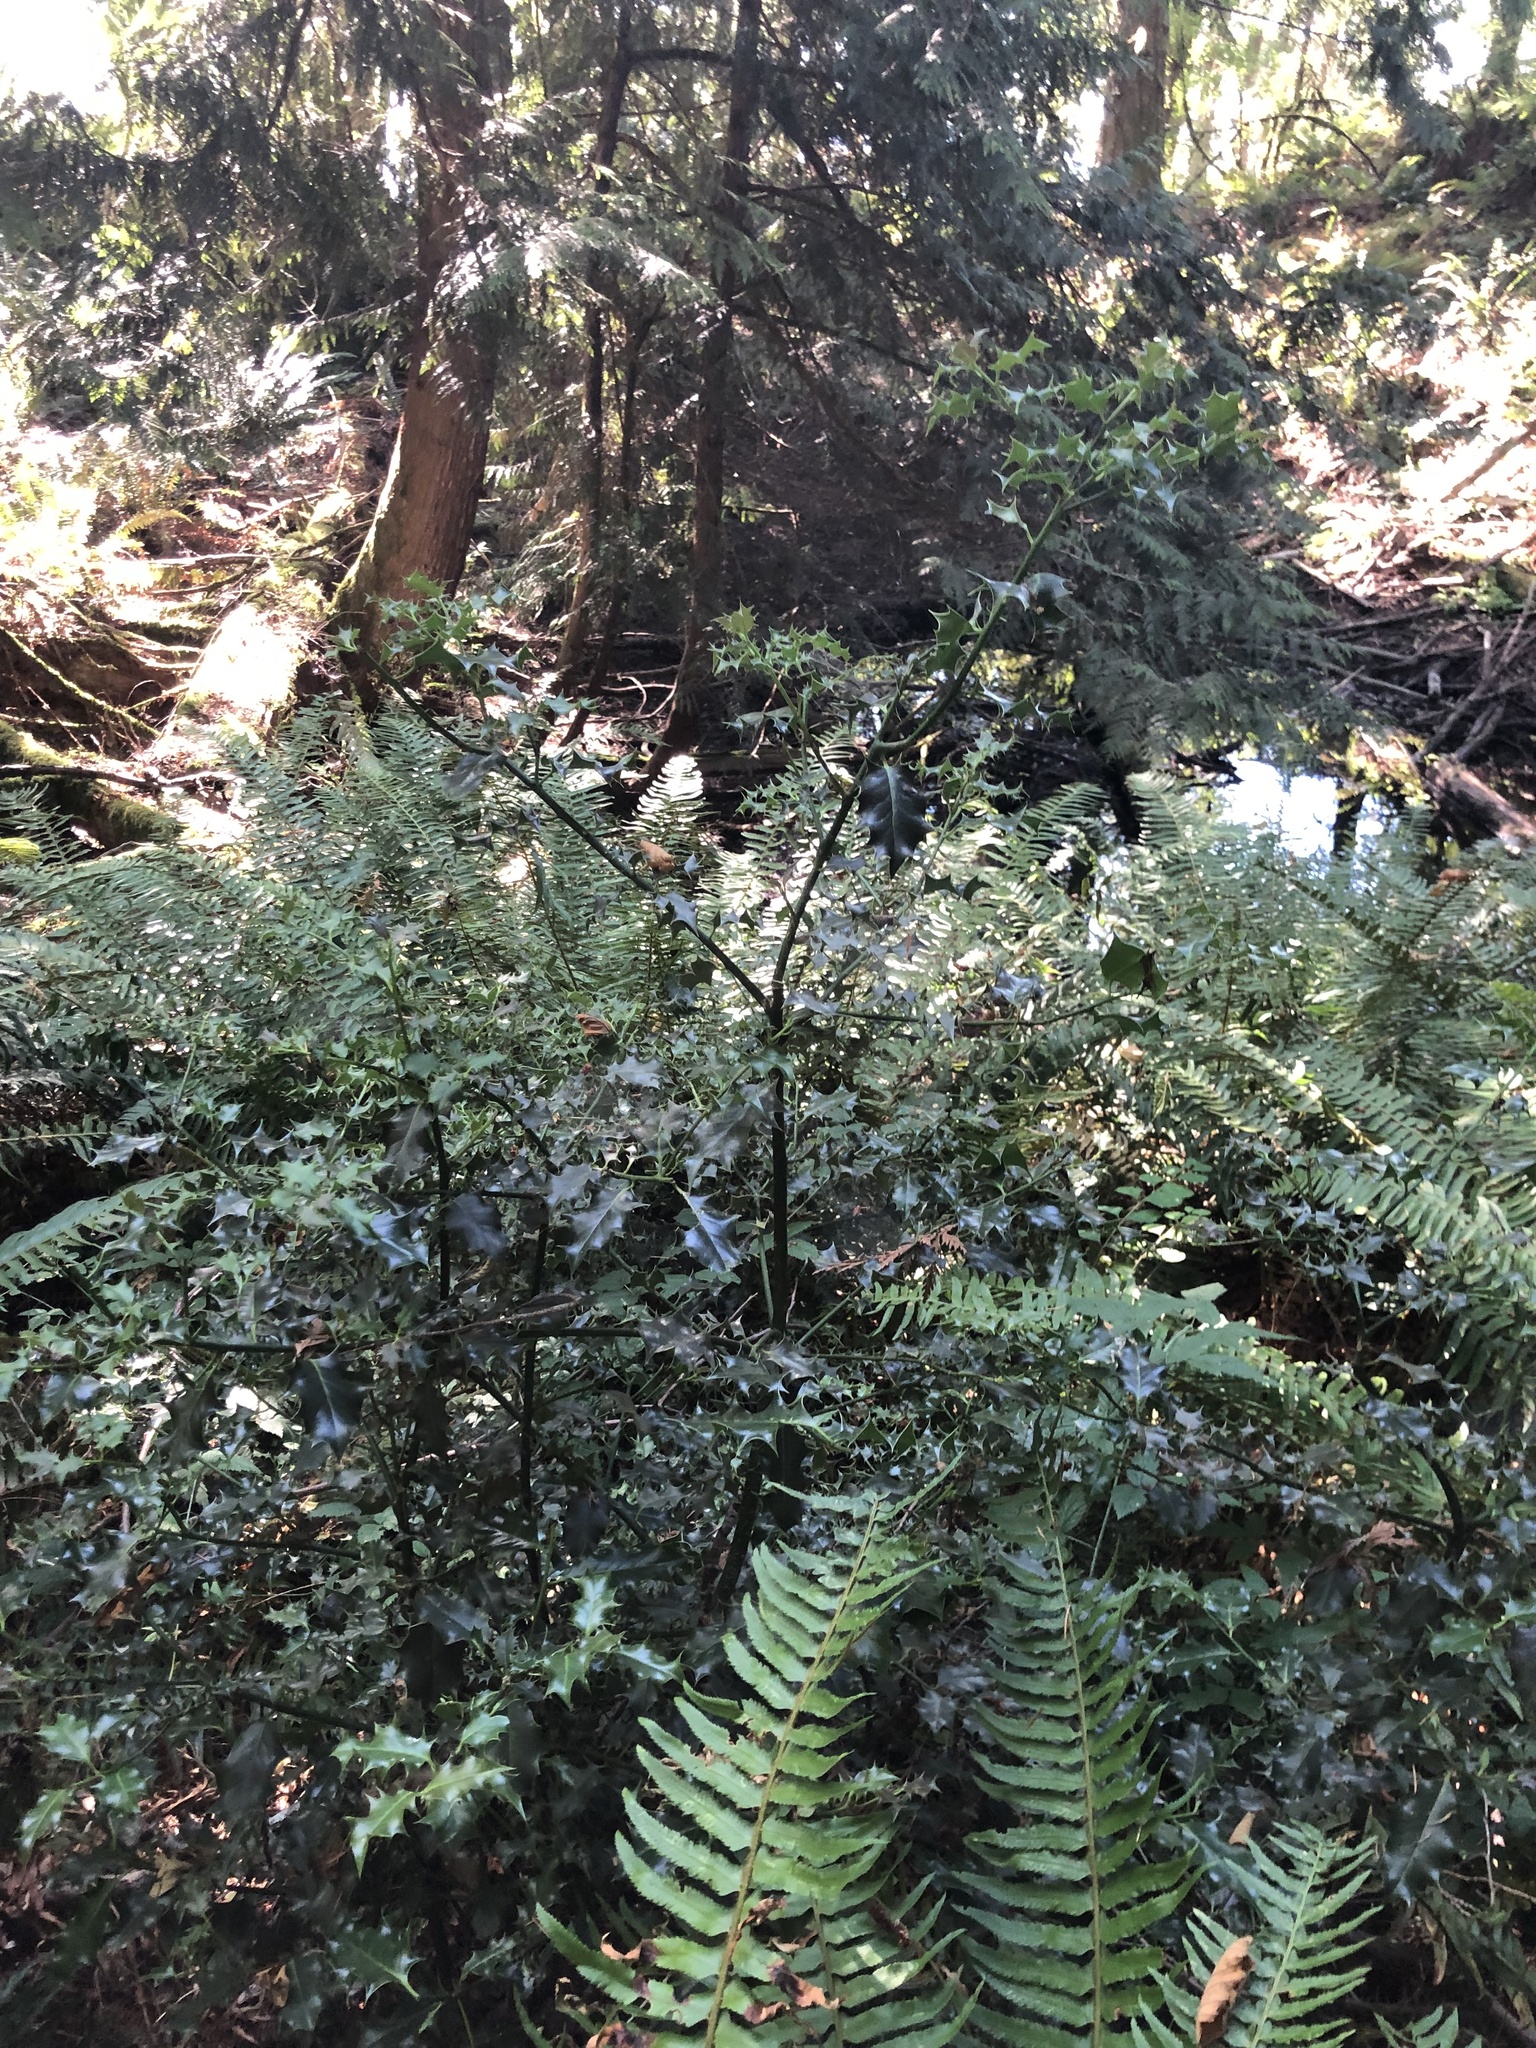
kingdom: Plantae
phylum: Tracheophyta
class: Magnoliopsida
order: Aquifoliales
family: Aquifoliaceae
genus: Ilex
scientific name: Ilex aquifolium
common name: English holly
